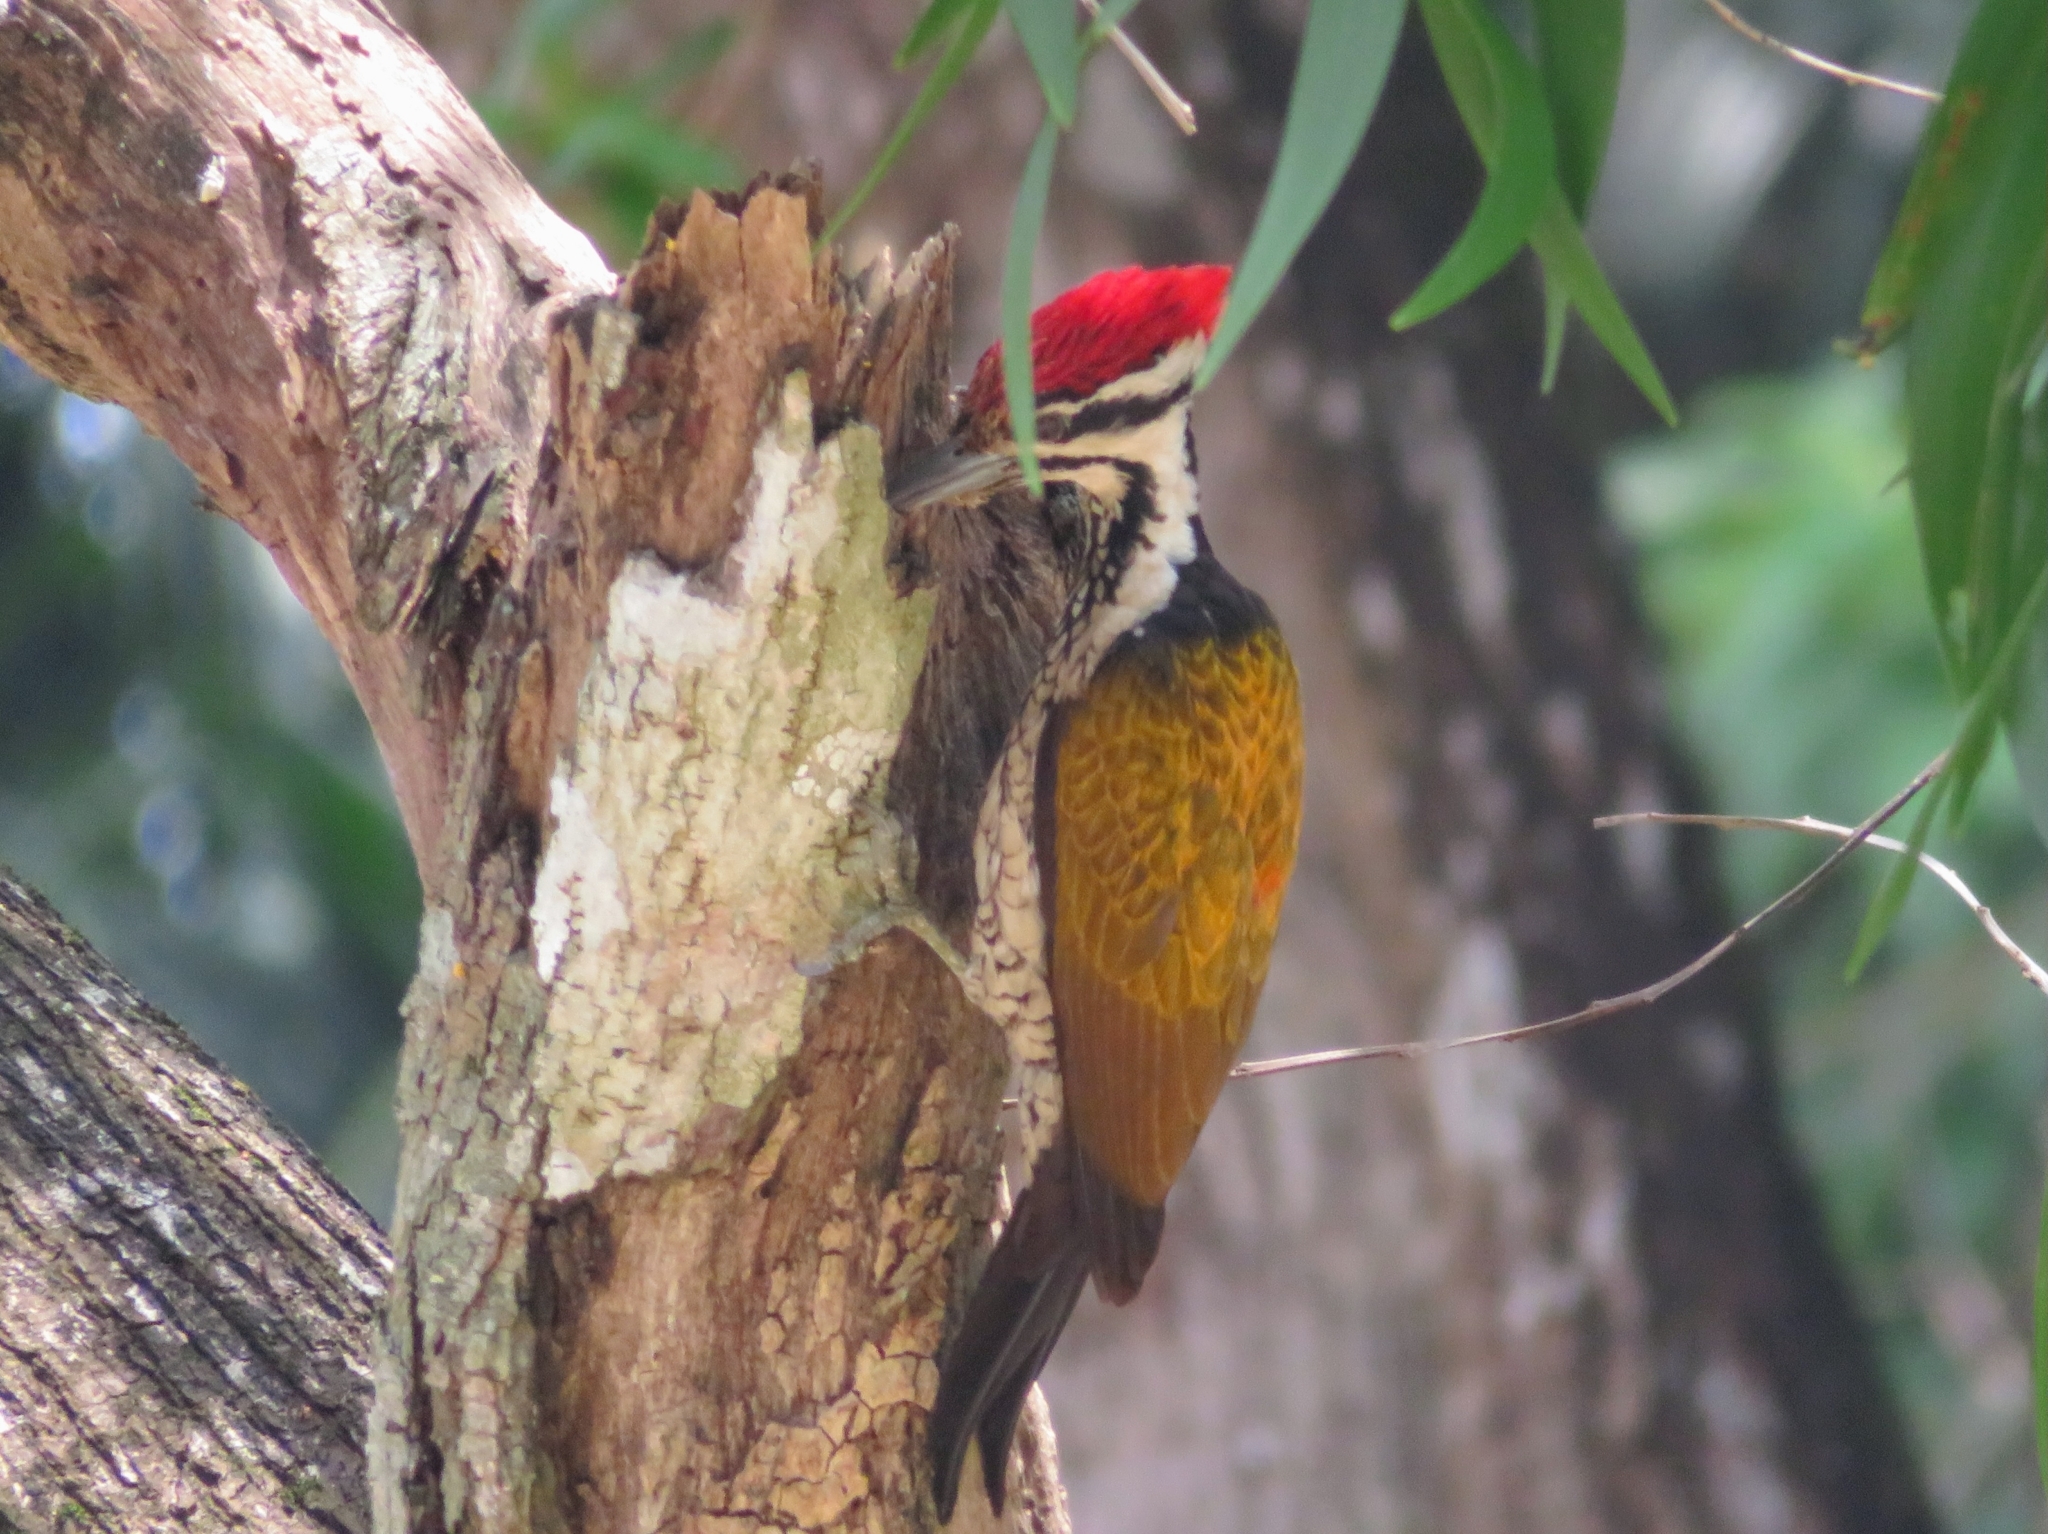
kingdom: Animalia
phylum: Chordata
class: Aves
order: Piciformes
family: Picidae
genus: Dinopium
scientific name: Dinopium javanense
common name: Common flameback
